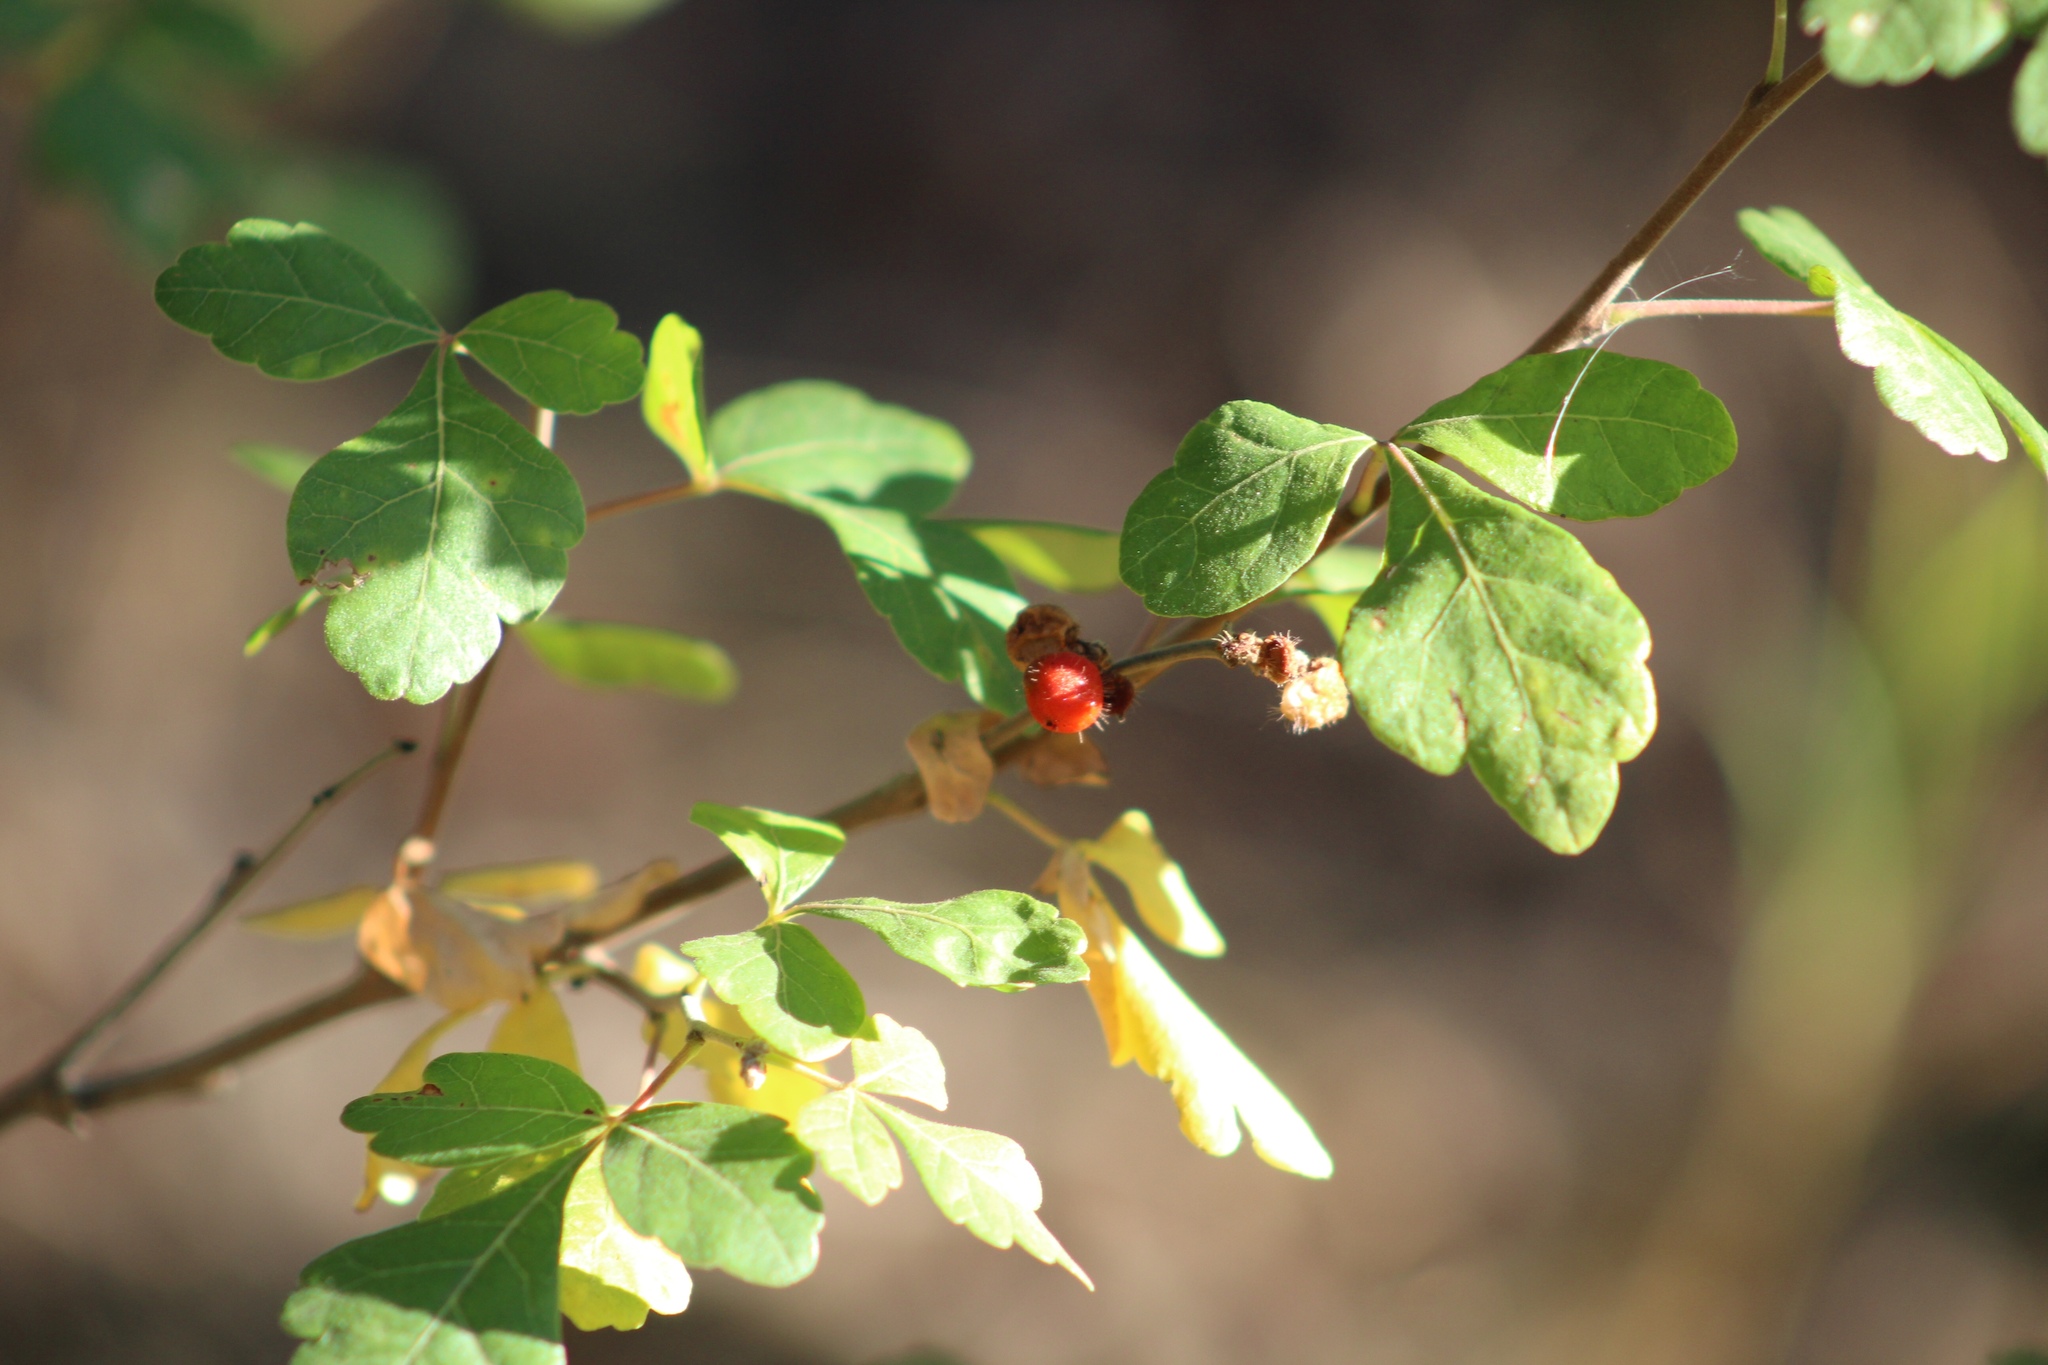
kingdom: Plantae
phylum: Tracheophyta
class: Magnoliopsida
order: Sapindales
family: Anacardiaceae
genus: Rhus
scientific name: Rhus aromatica
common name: Aromatic sumac
